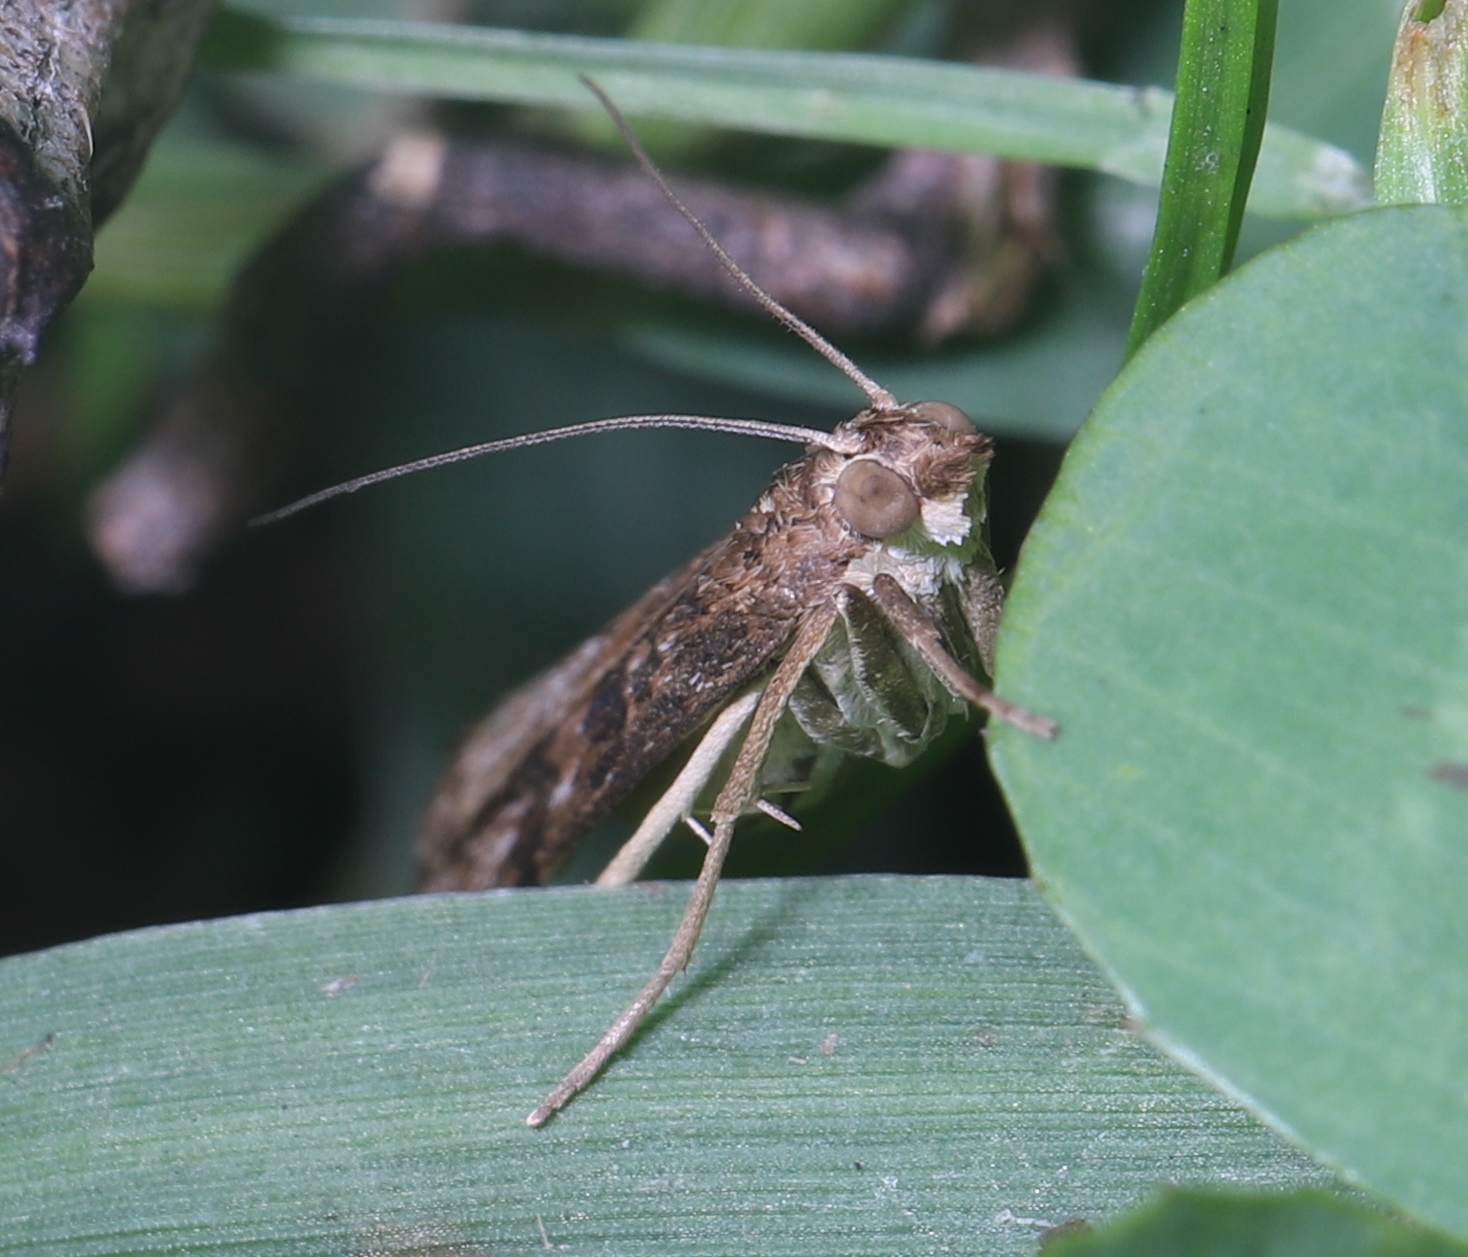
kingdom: Animalia
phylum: Arthropoda
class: Insecta
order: Lepidoptera
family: Crambidae
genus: Nomophila
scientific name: Nomophila nearctica
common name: American rush veneer
